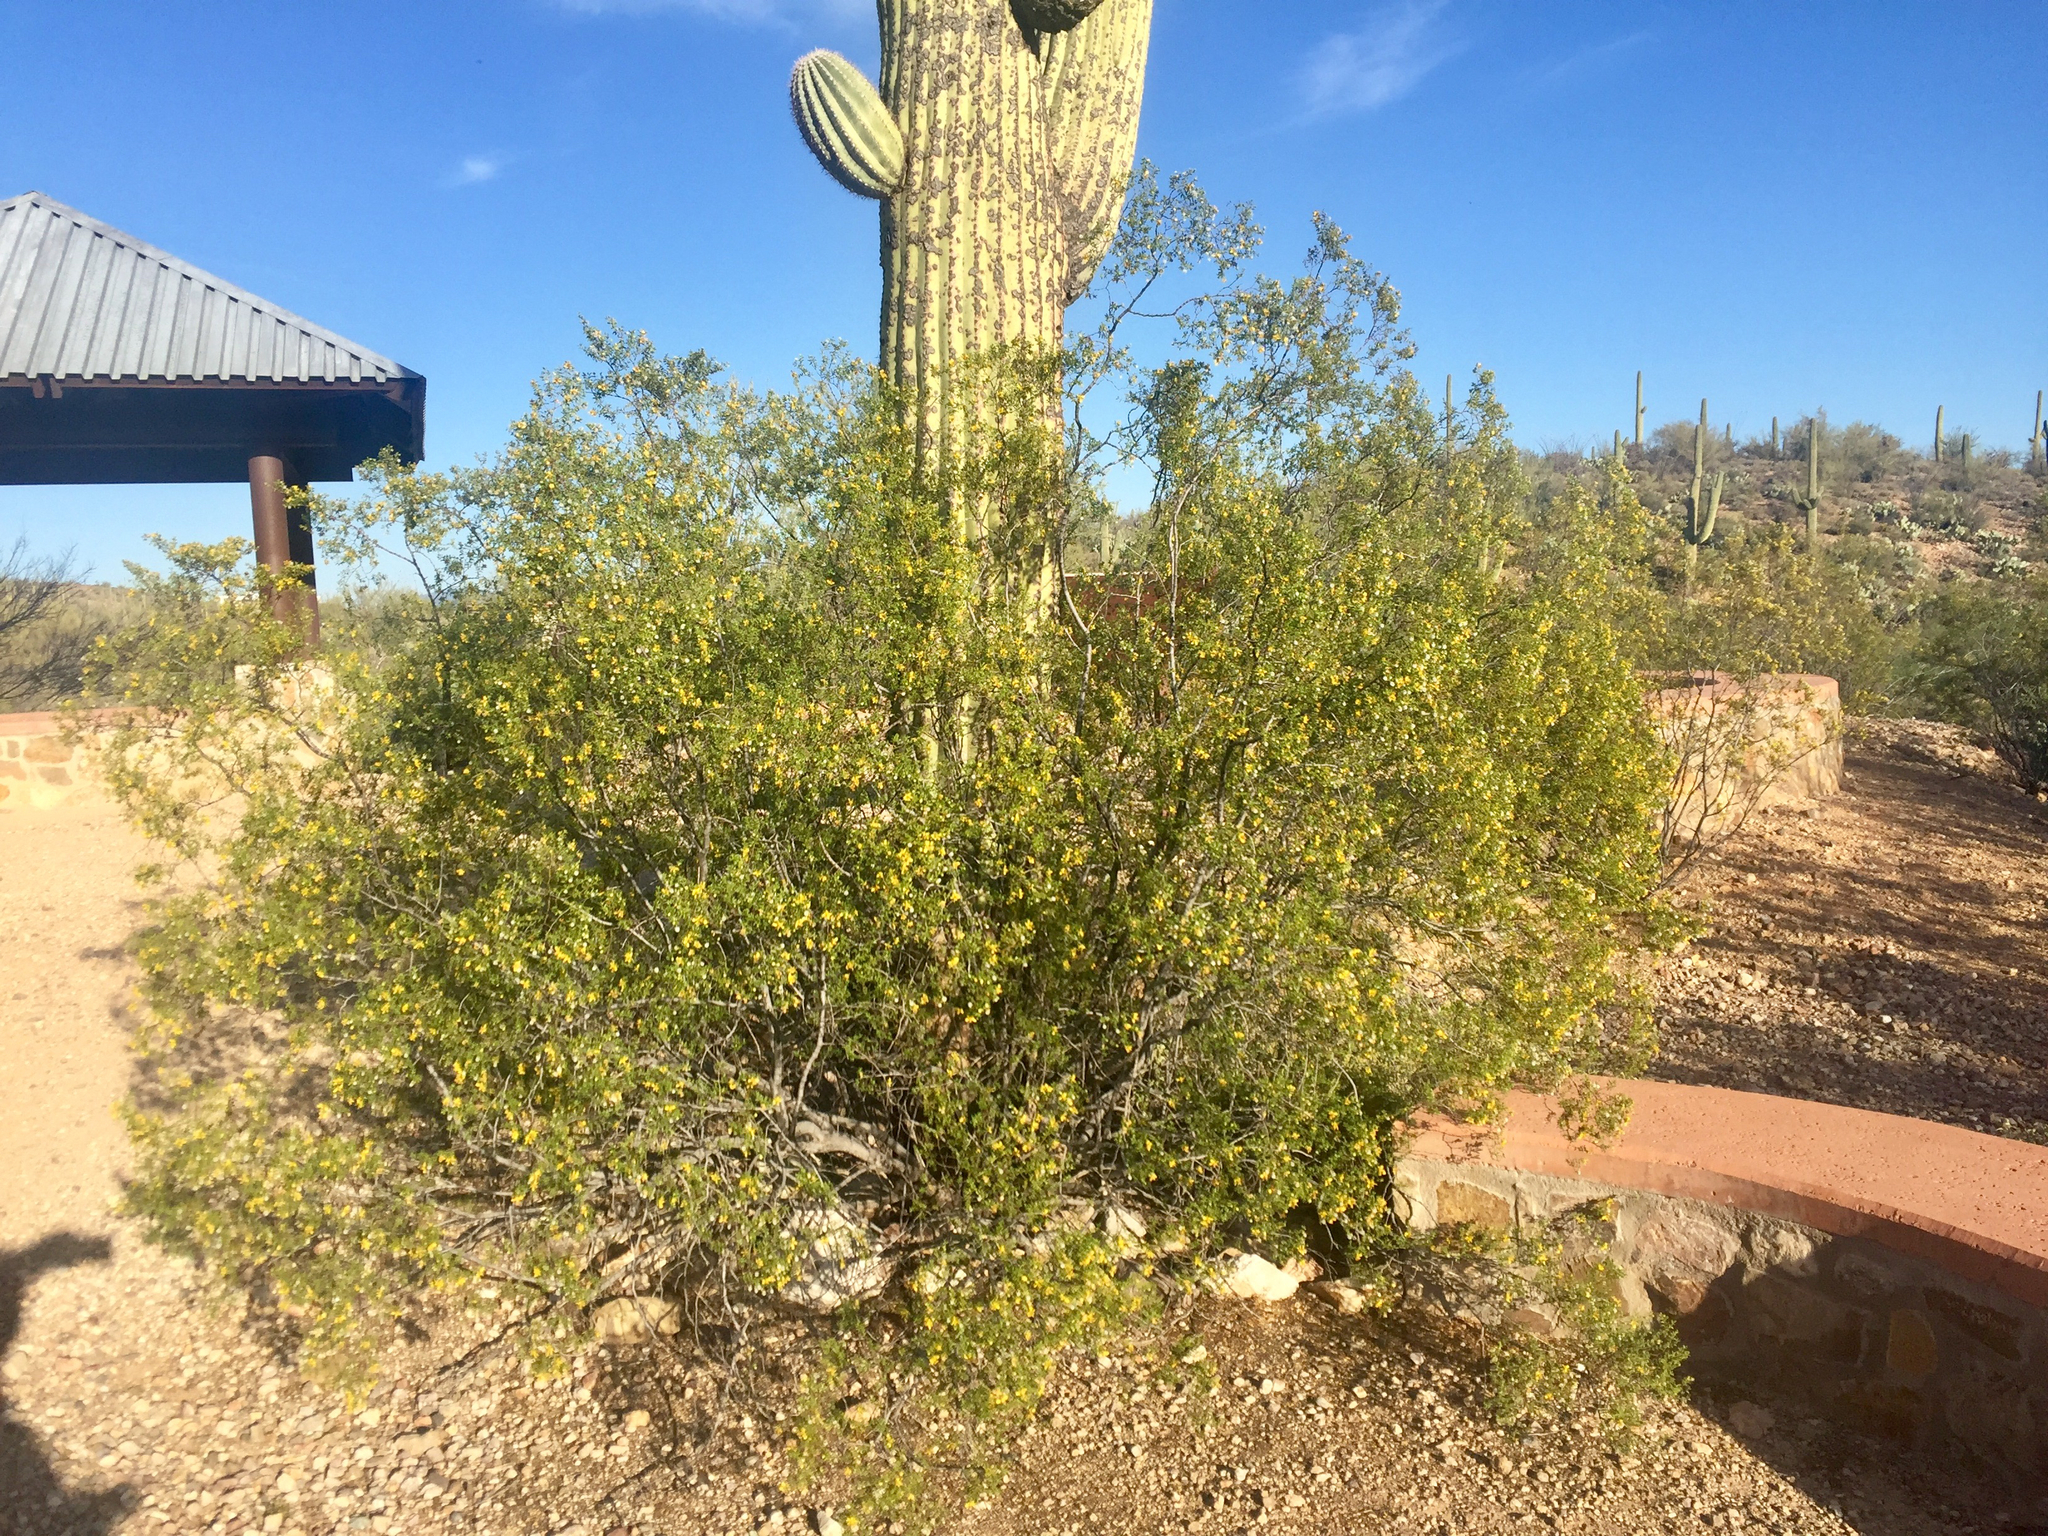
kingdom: Plantae
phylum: Tracheophyta
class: Magnoliopsida
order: Zygophyllales
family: Zygophyllaceae
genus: Larrea
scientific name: Larrea tridentata
